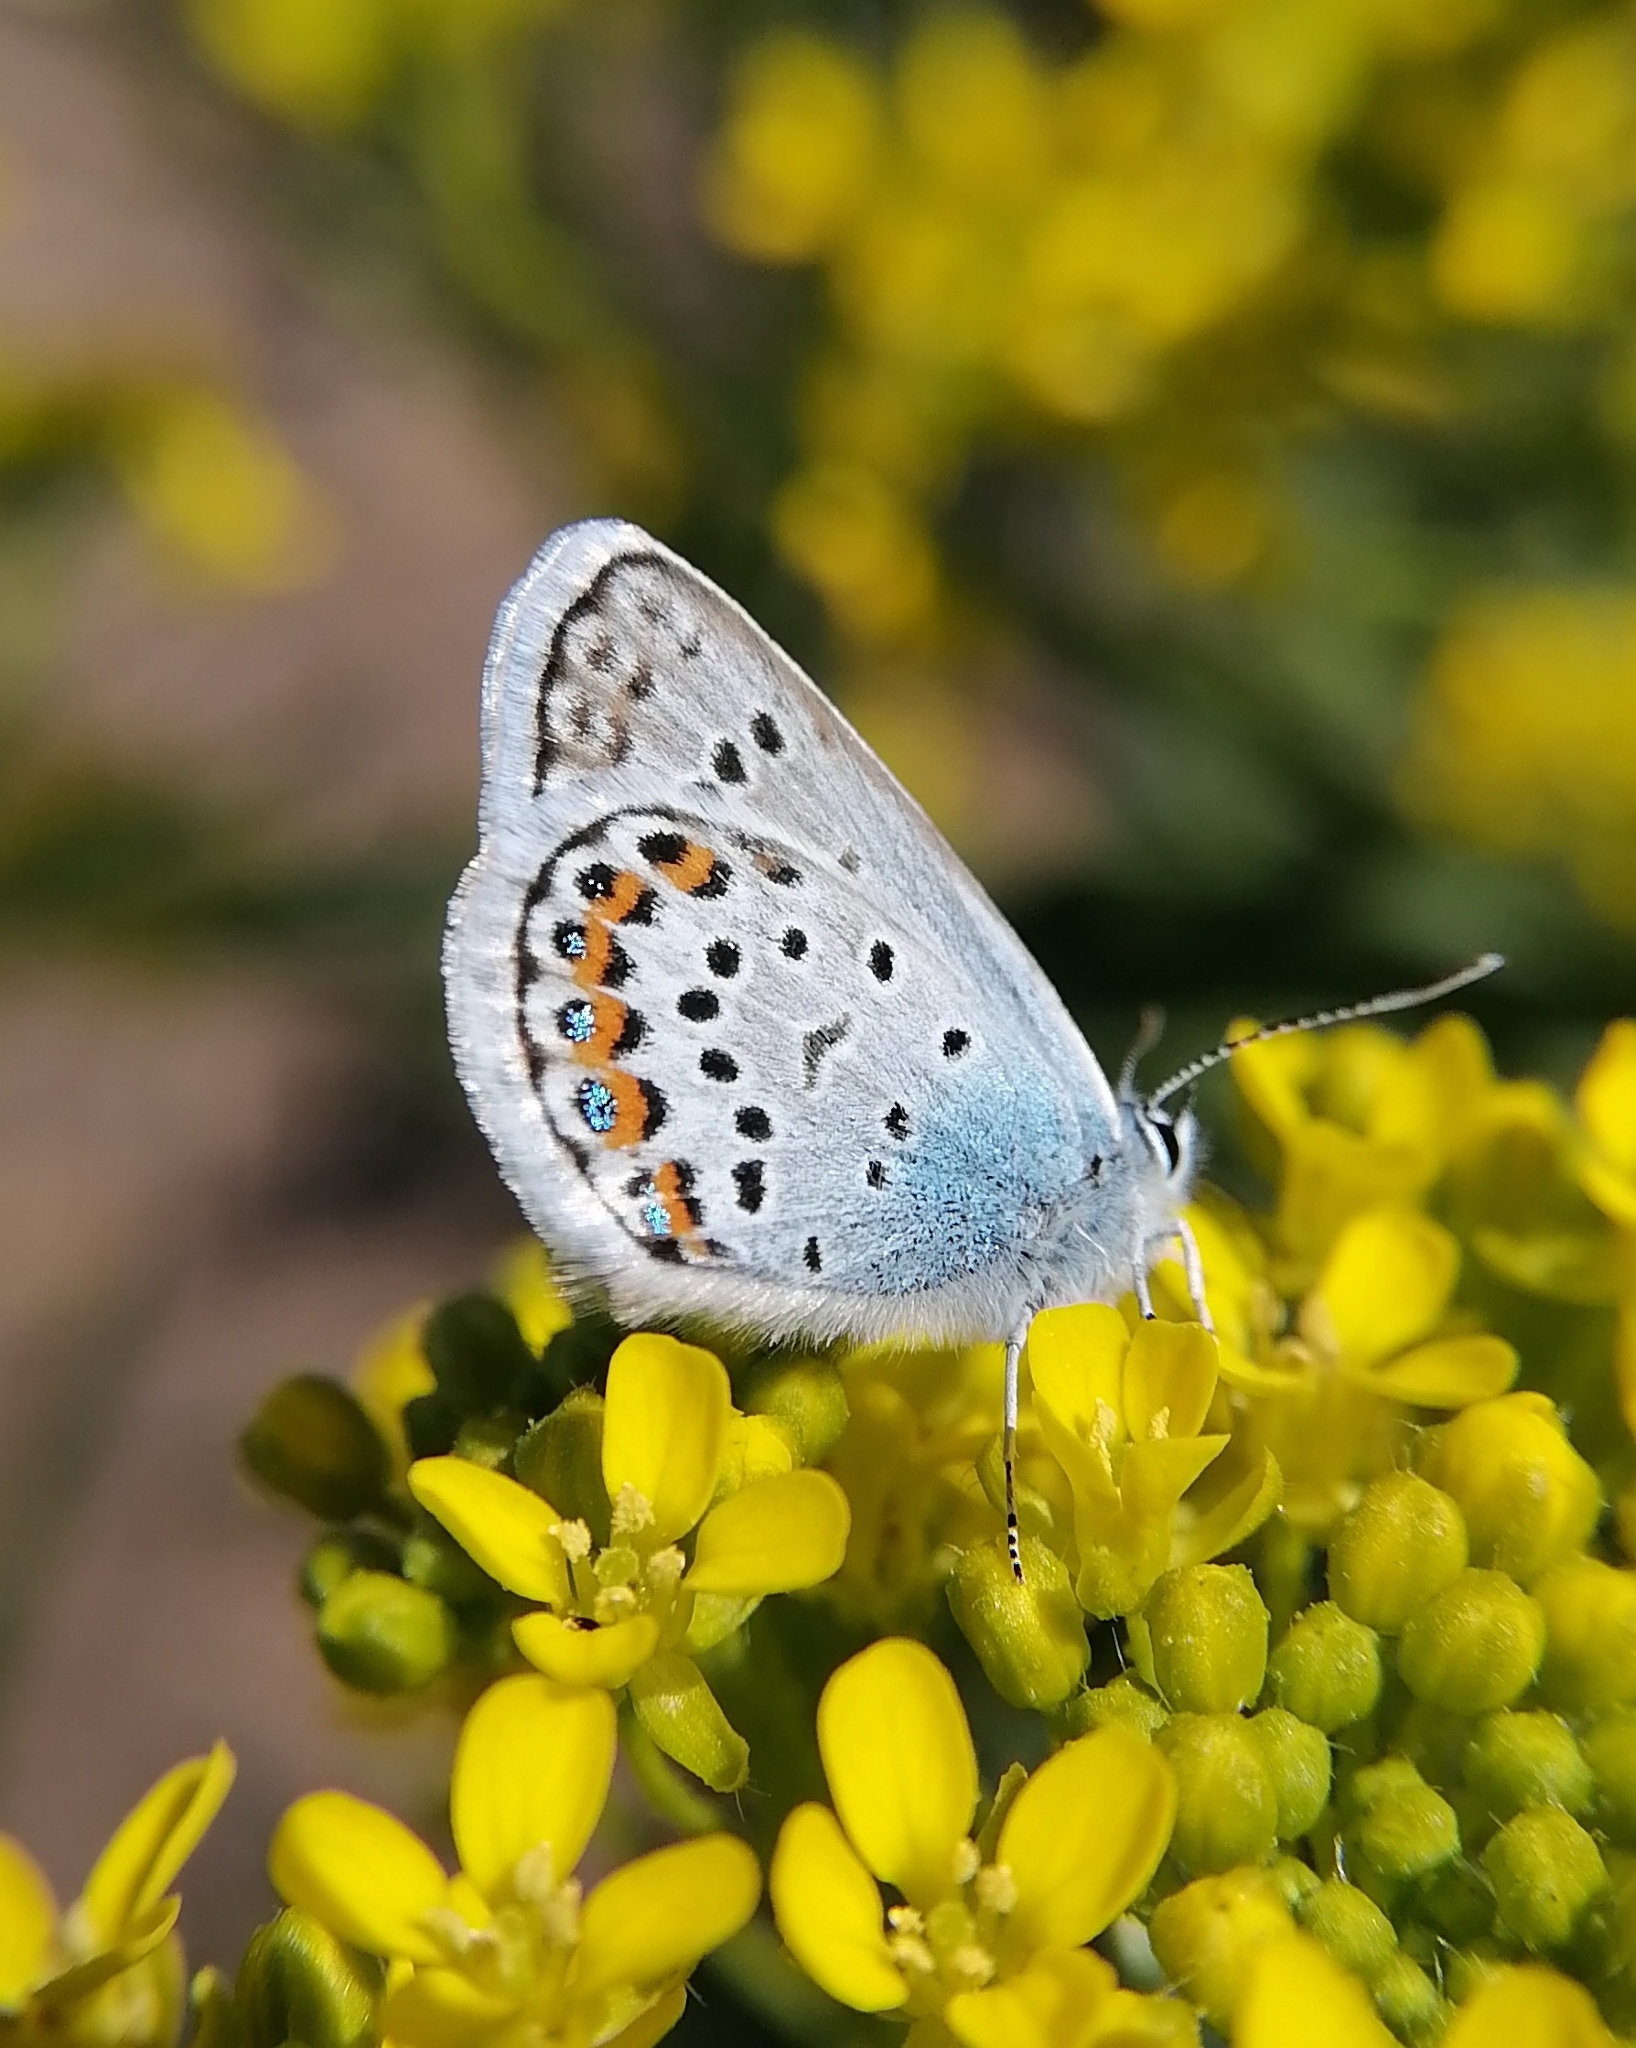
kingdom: Animalia
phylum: Arthropoda
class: Insecta
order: Lepidoptera
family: Lycaenidae
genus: Plebejus
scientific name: Plebejus argus
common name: Silver-studded blue
